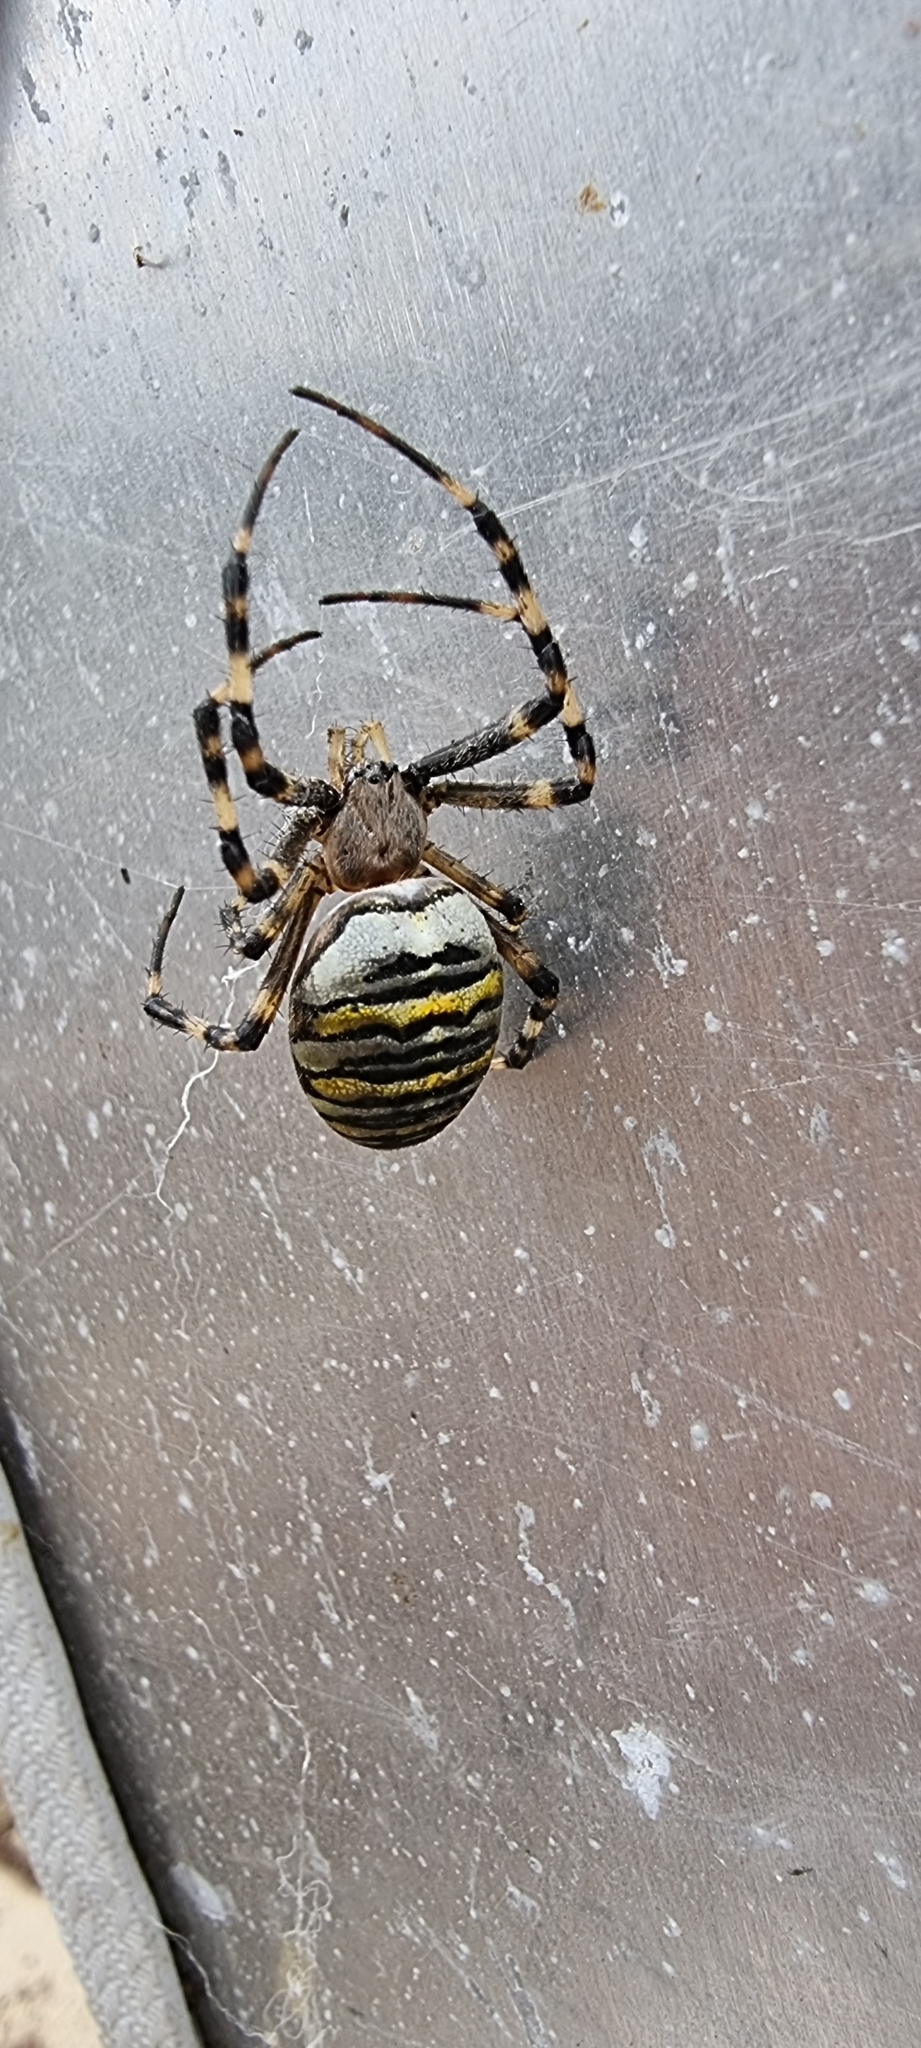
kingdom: Animalia
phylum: Arthropoda
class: Arachnida
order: Araneae
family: Araneidae
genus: Argiope
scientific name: Argiope bruennichi
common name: Wasp spider
